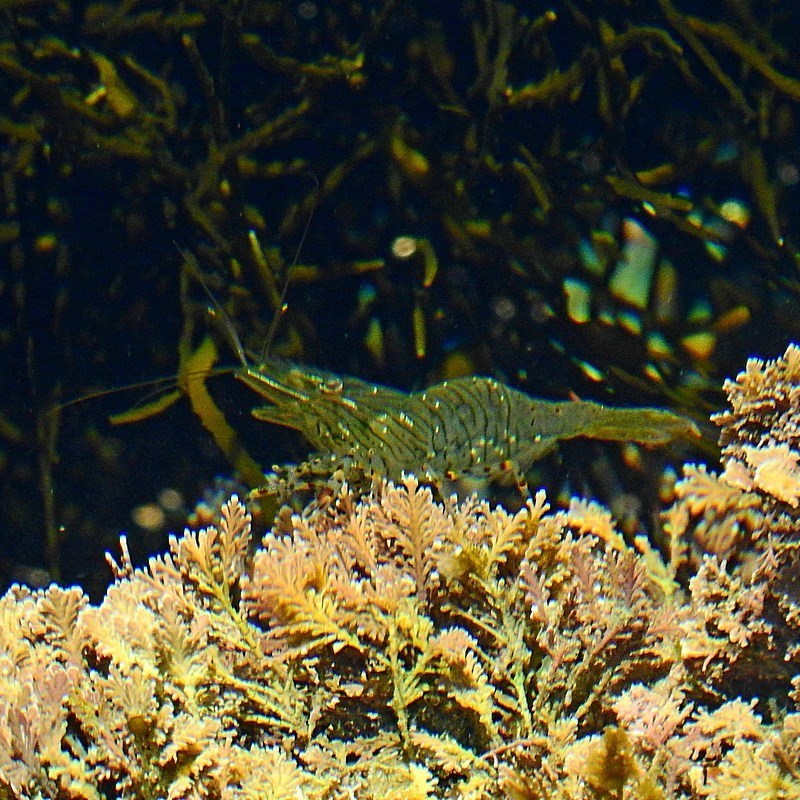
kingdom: Animalia
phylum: Arthropoda
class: Malacostraca
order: Decapoda
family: Palaemonidae
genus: Palaemon
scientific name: Palaemon dolospinus
